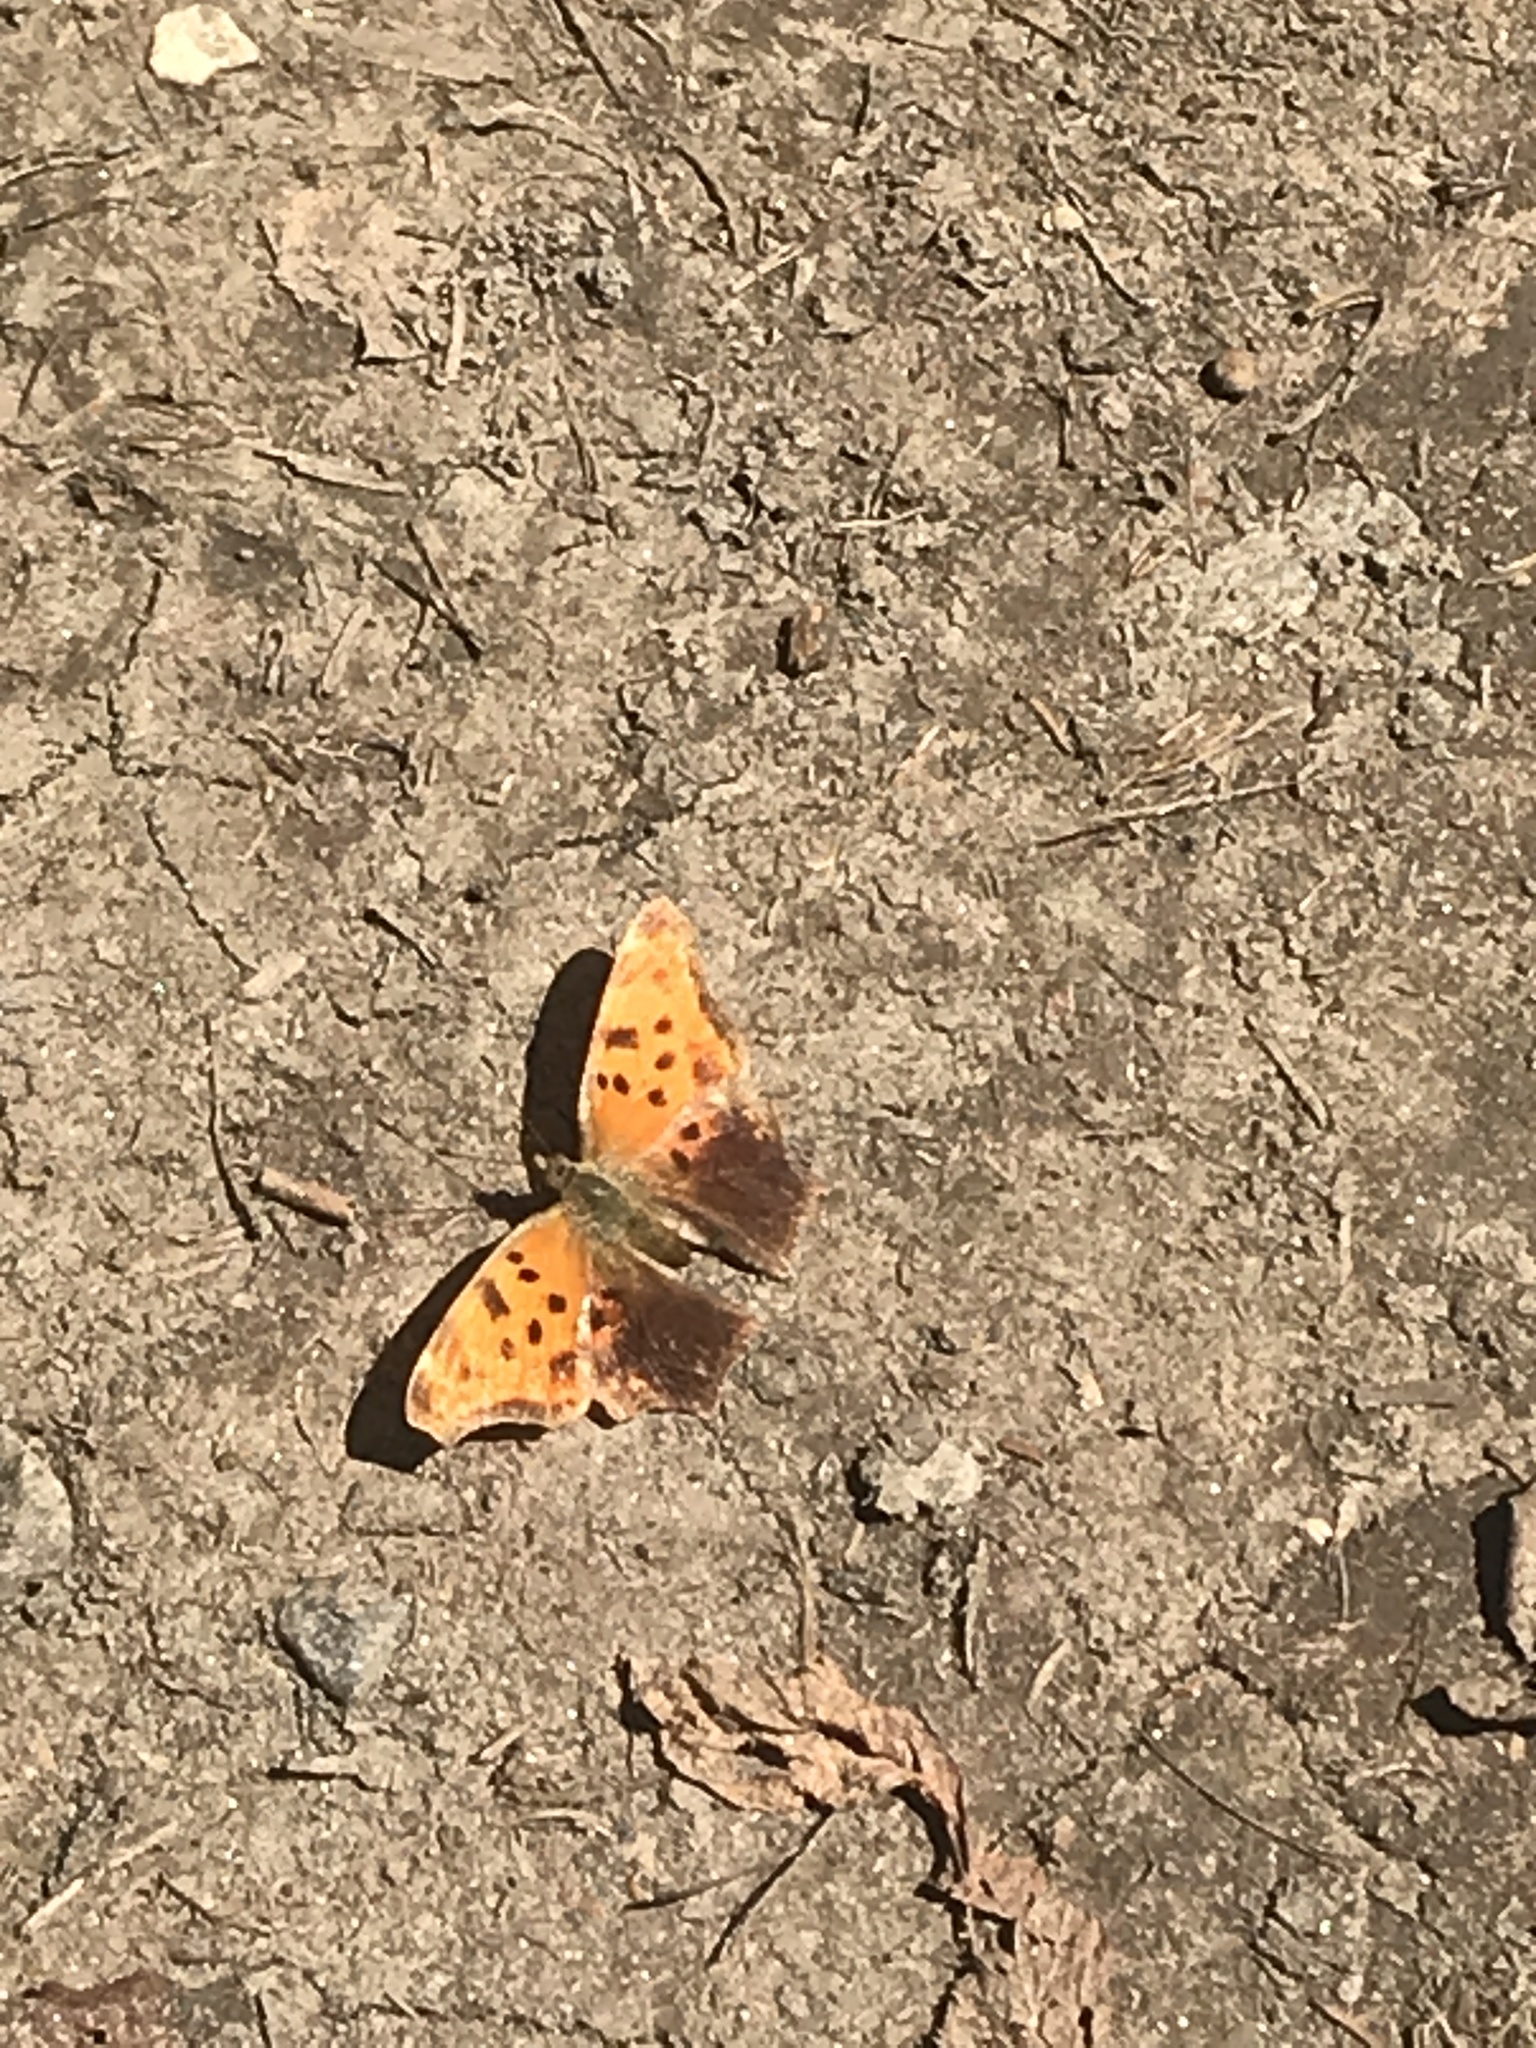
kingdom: Animalia
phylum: Arthropoda
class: Insecta
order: Lepidoptera
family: Nymphalidae
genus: Polygonia
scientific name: Polygonia comma
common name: Eastern comma
